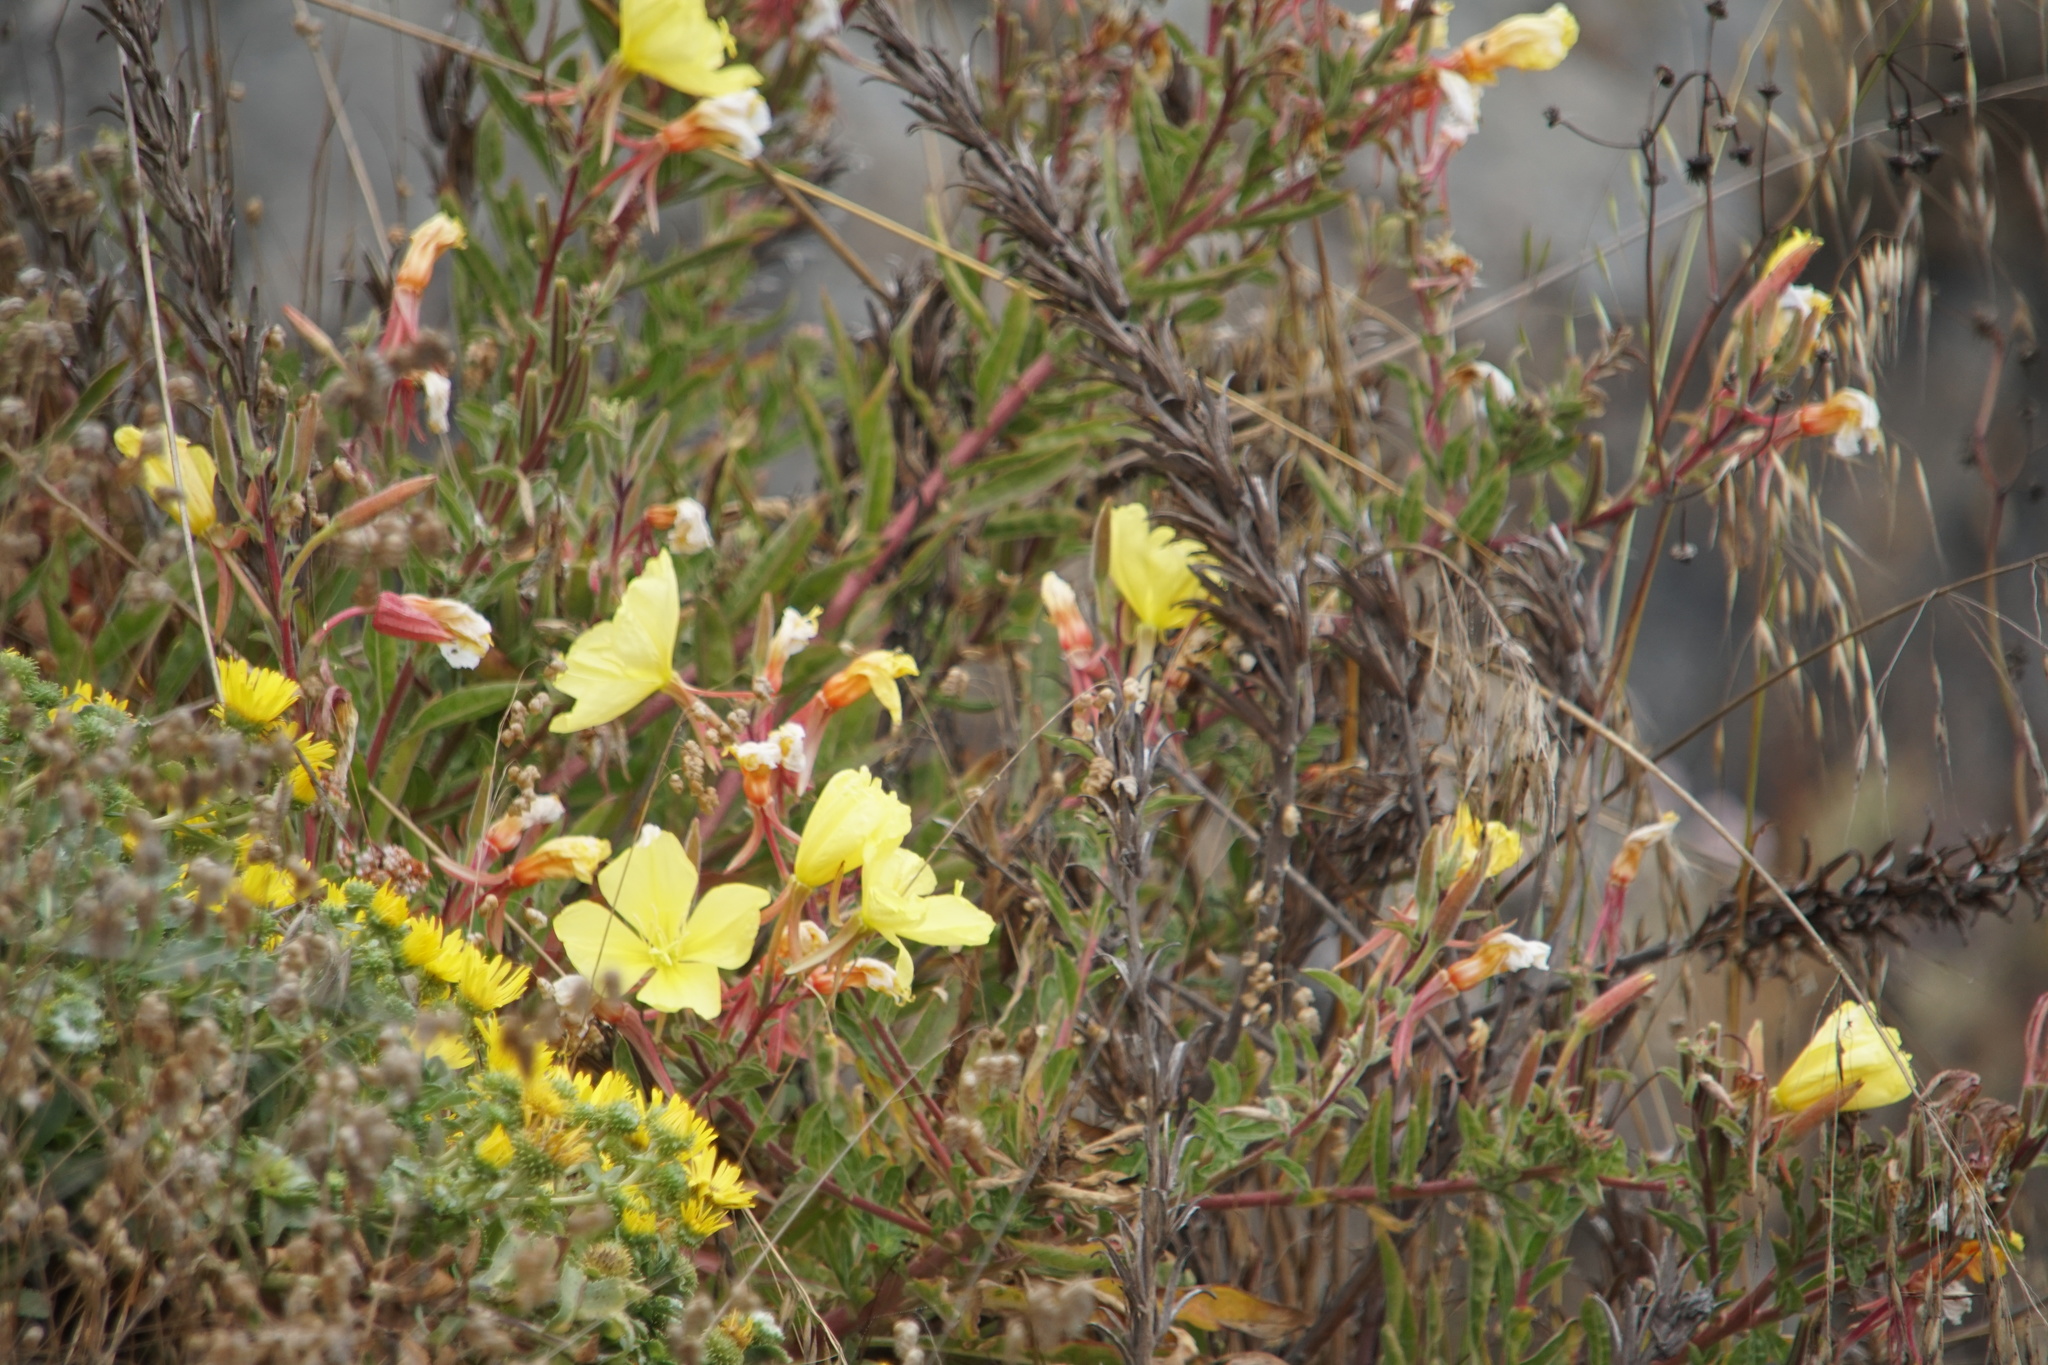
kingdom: Plantae
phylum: Tracheophyta
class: Magnoliopsida
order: Myrtales
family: Onagraceae
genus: Oenothera
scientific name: Oenothera elata
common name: Hooker's evening-primrose
